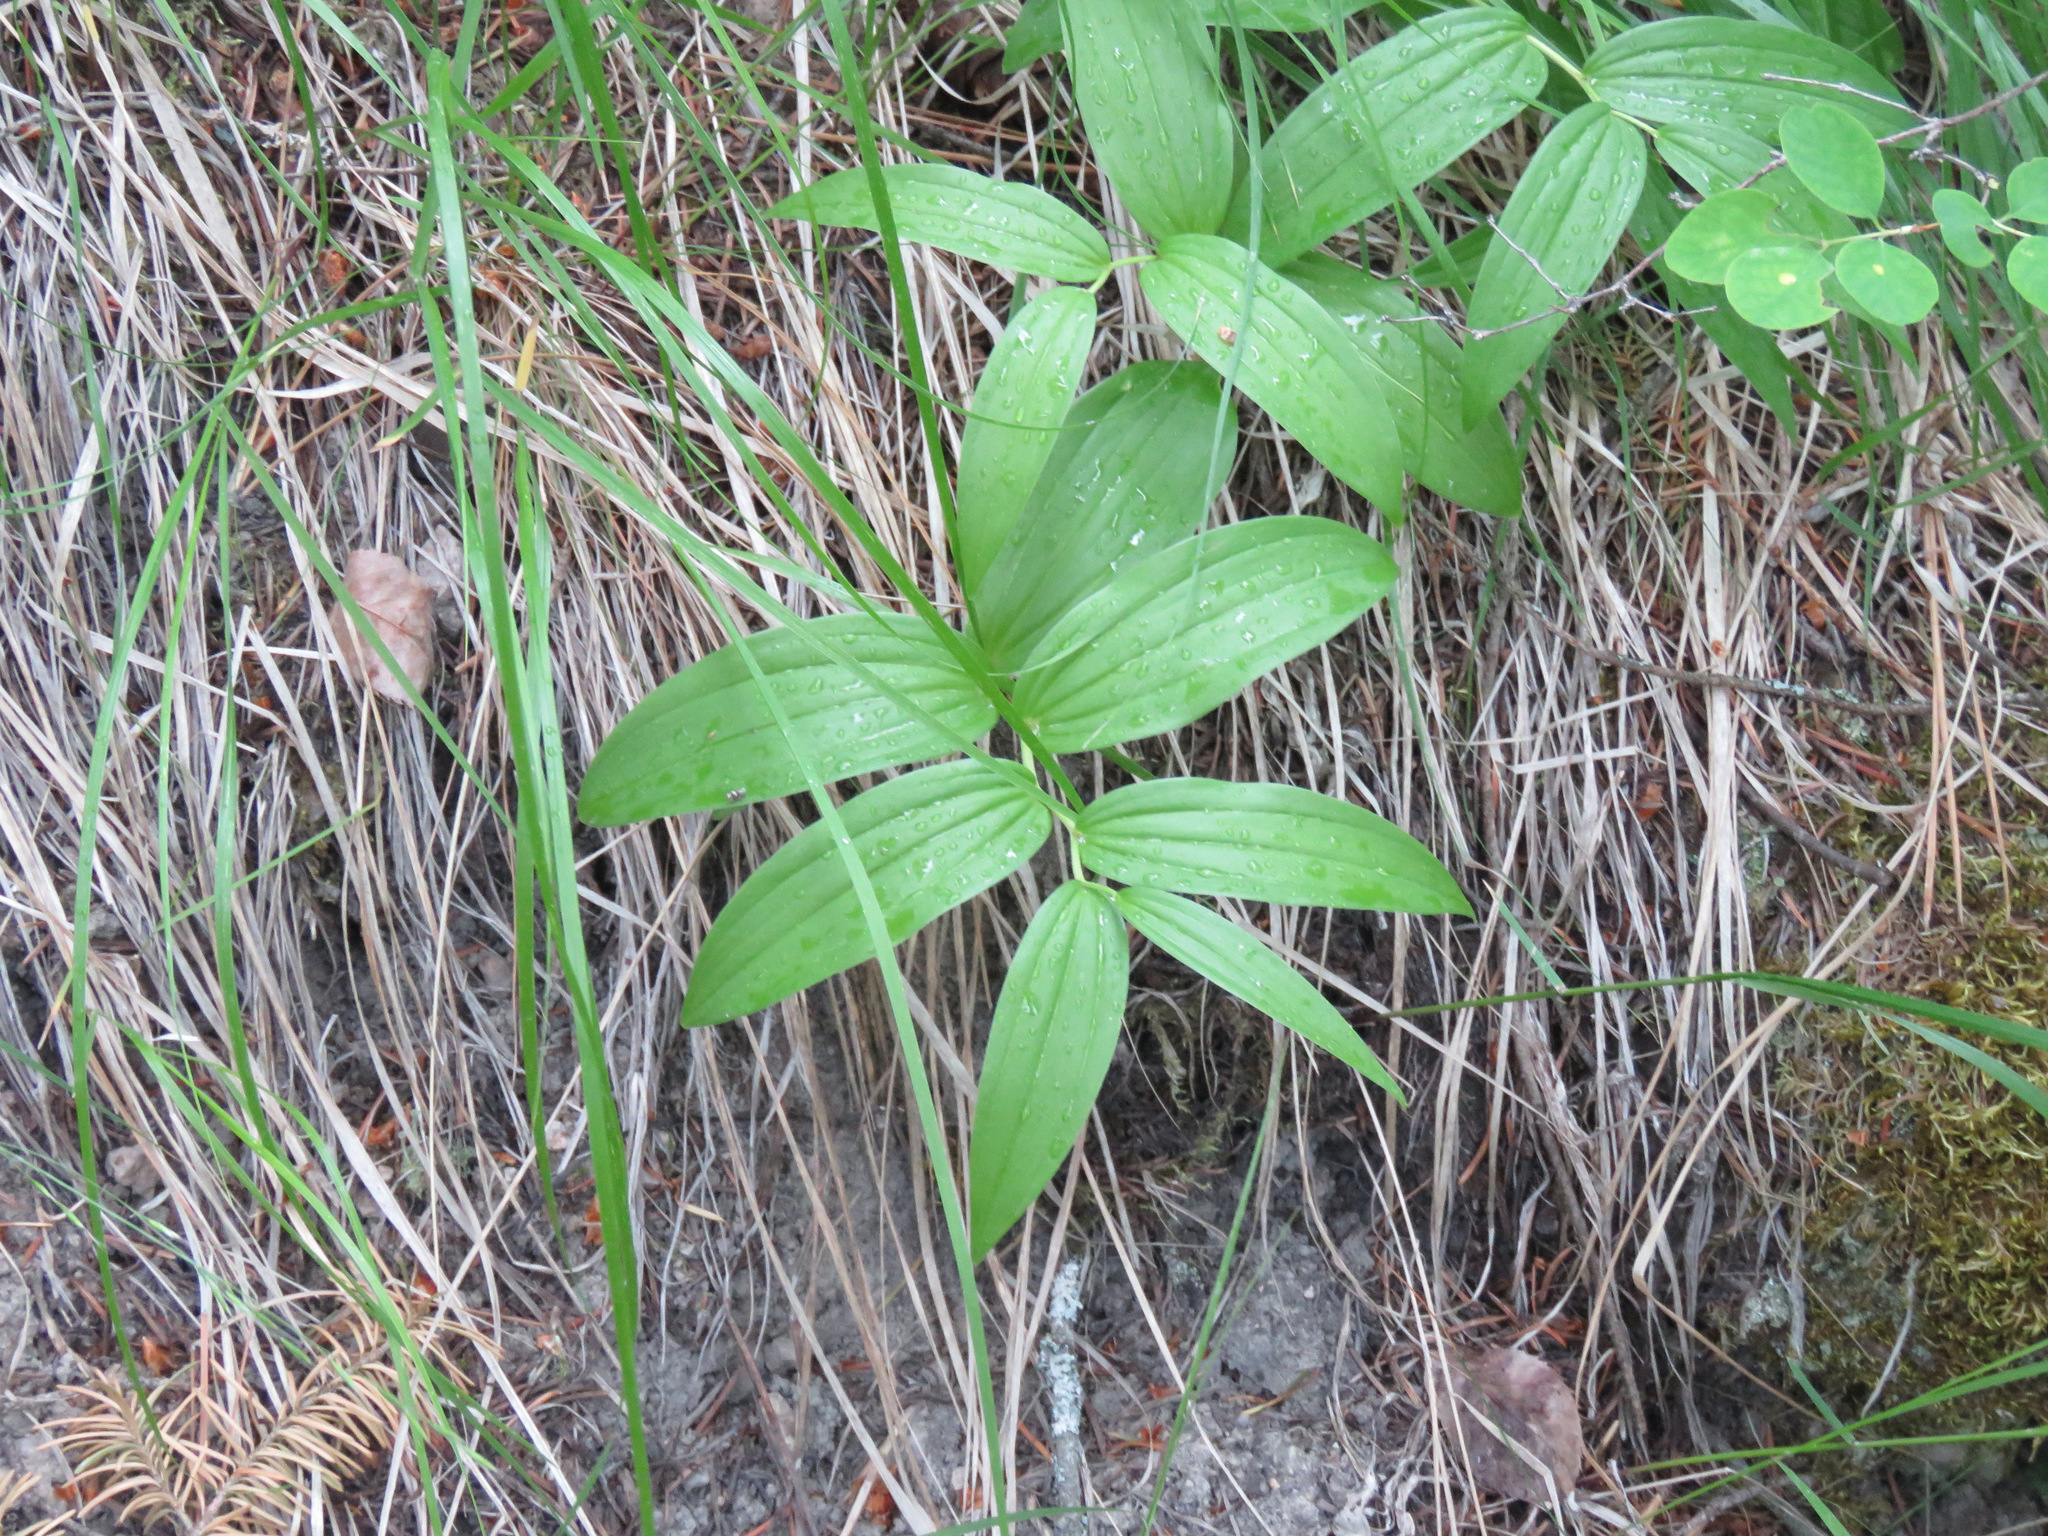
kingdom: Plantae
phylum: Tracheophyta
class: Liliopsida
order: Asparagales
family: Asparagaceae
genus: Maianthemum
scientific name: Maianthemum racemosum
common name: False spikenard
